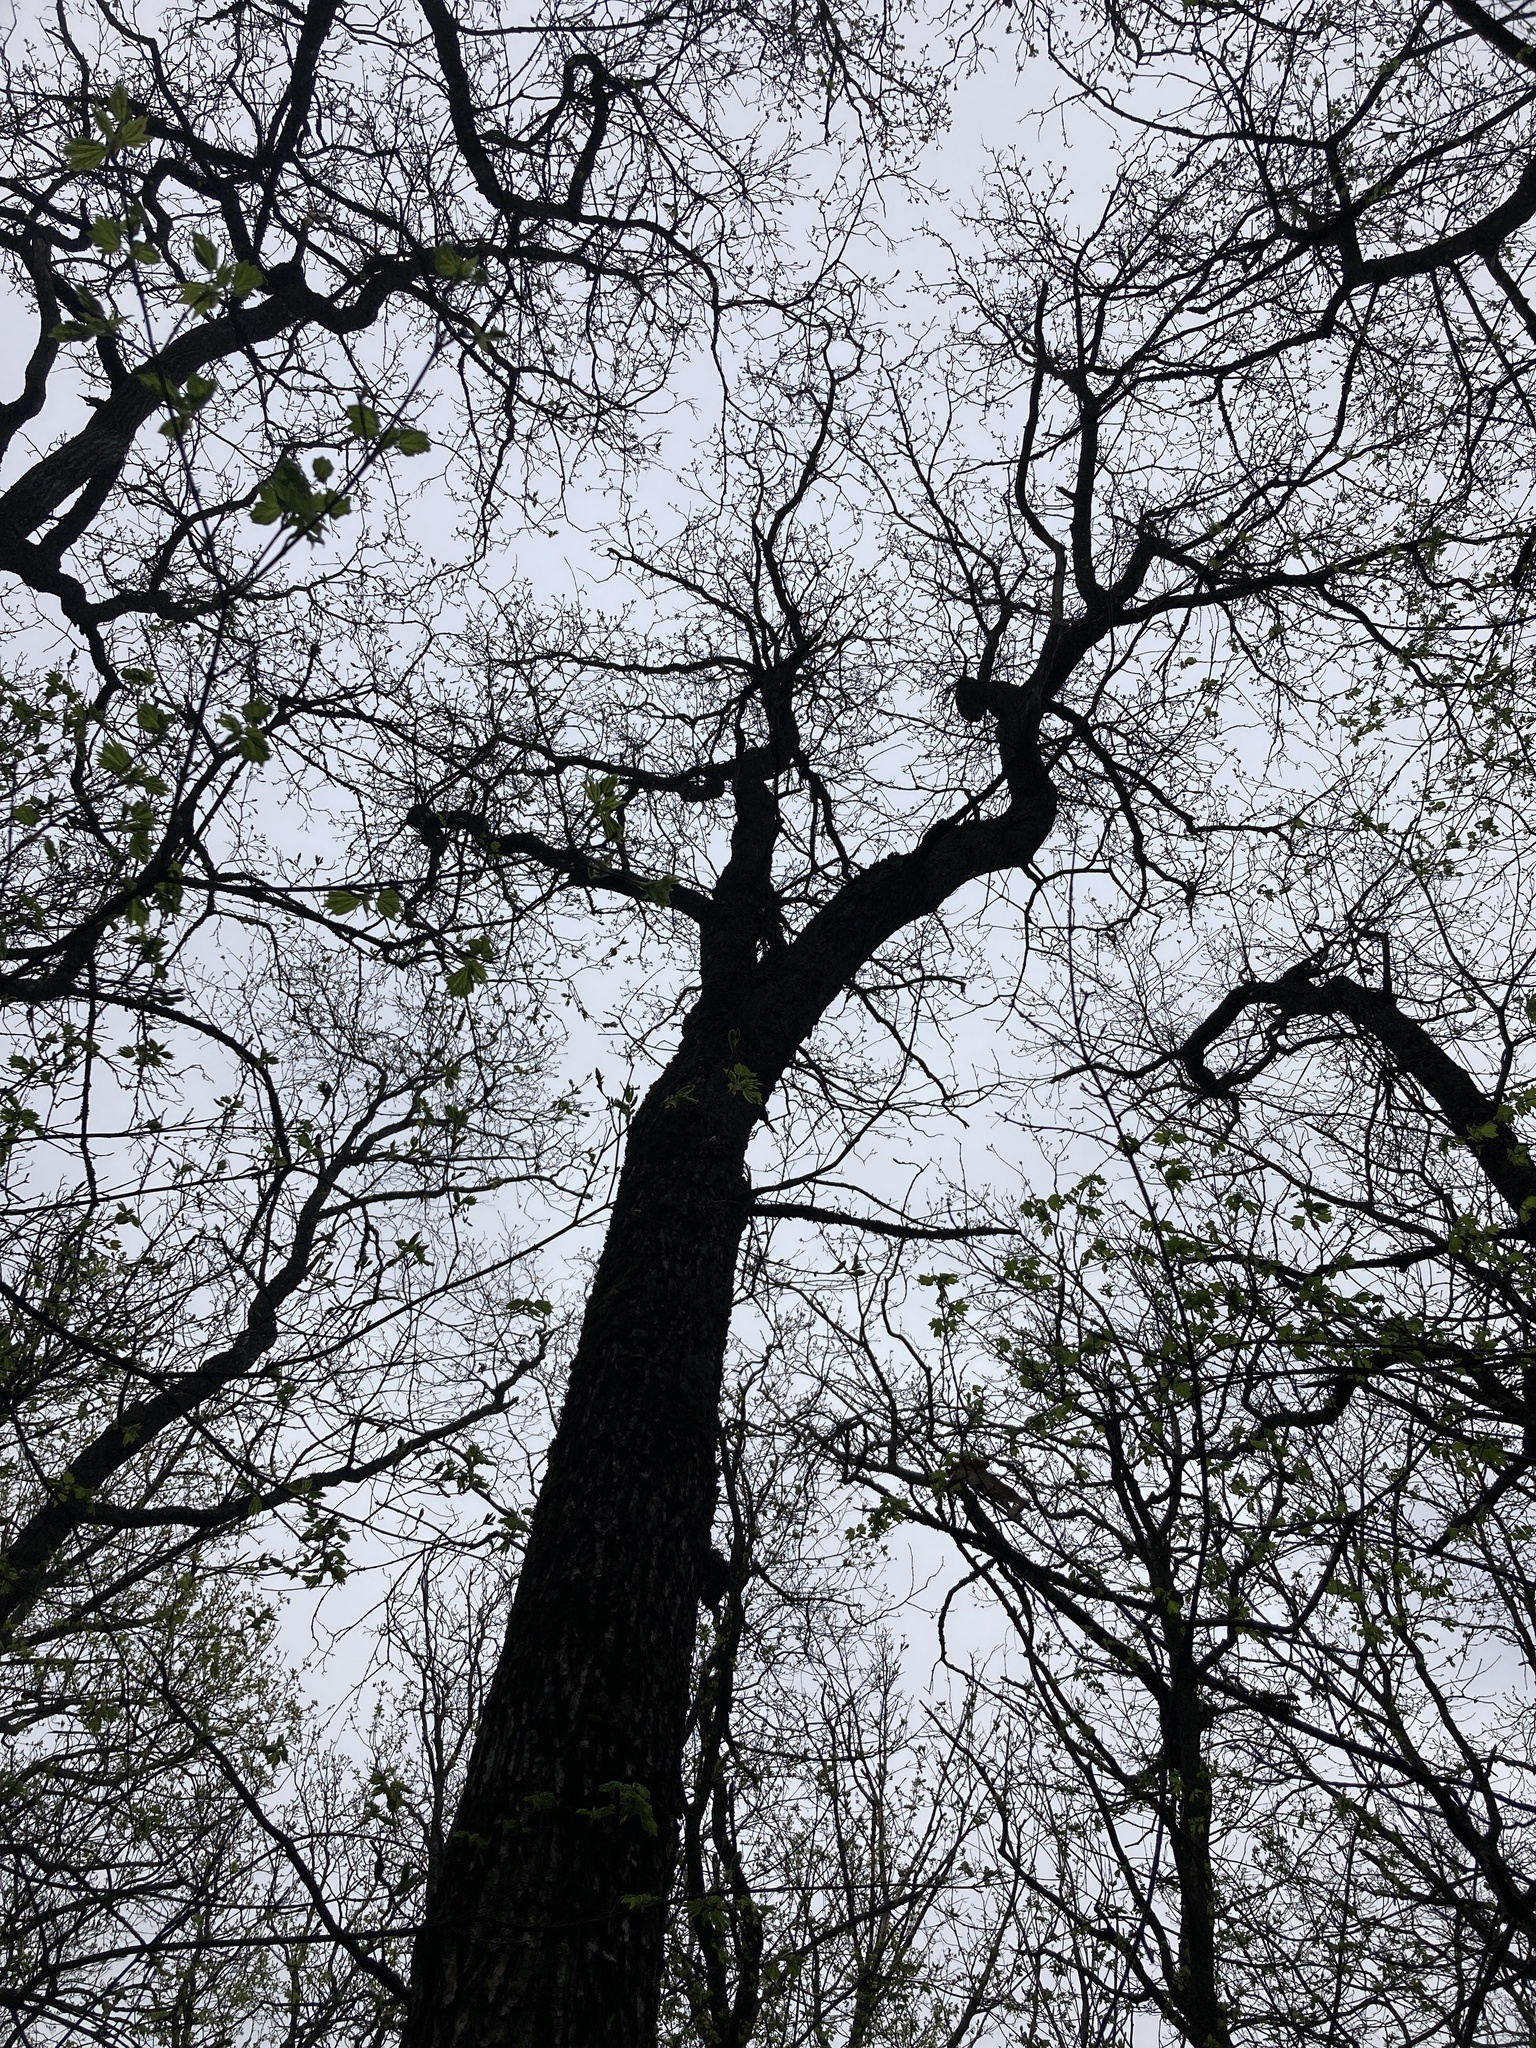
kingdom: Plantae
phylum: Tracheophyta
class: Magnoliopsida
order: Fagales
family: Fagaceae
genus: Quercus
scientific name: Quercus robur
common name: Pedunculate oak
